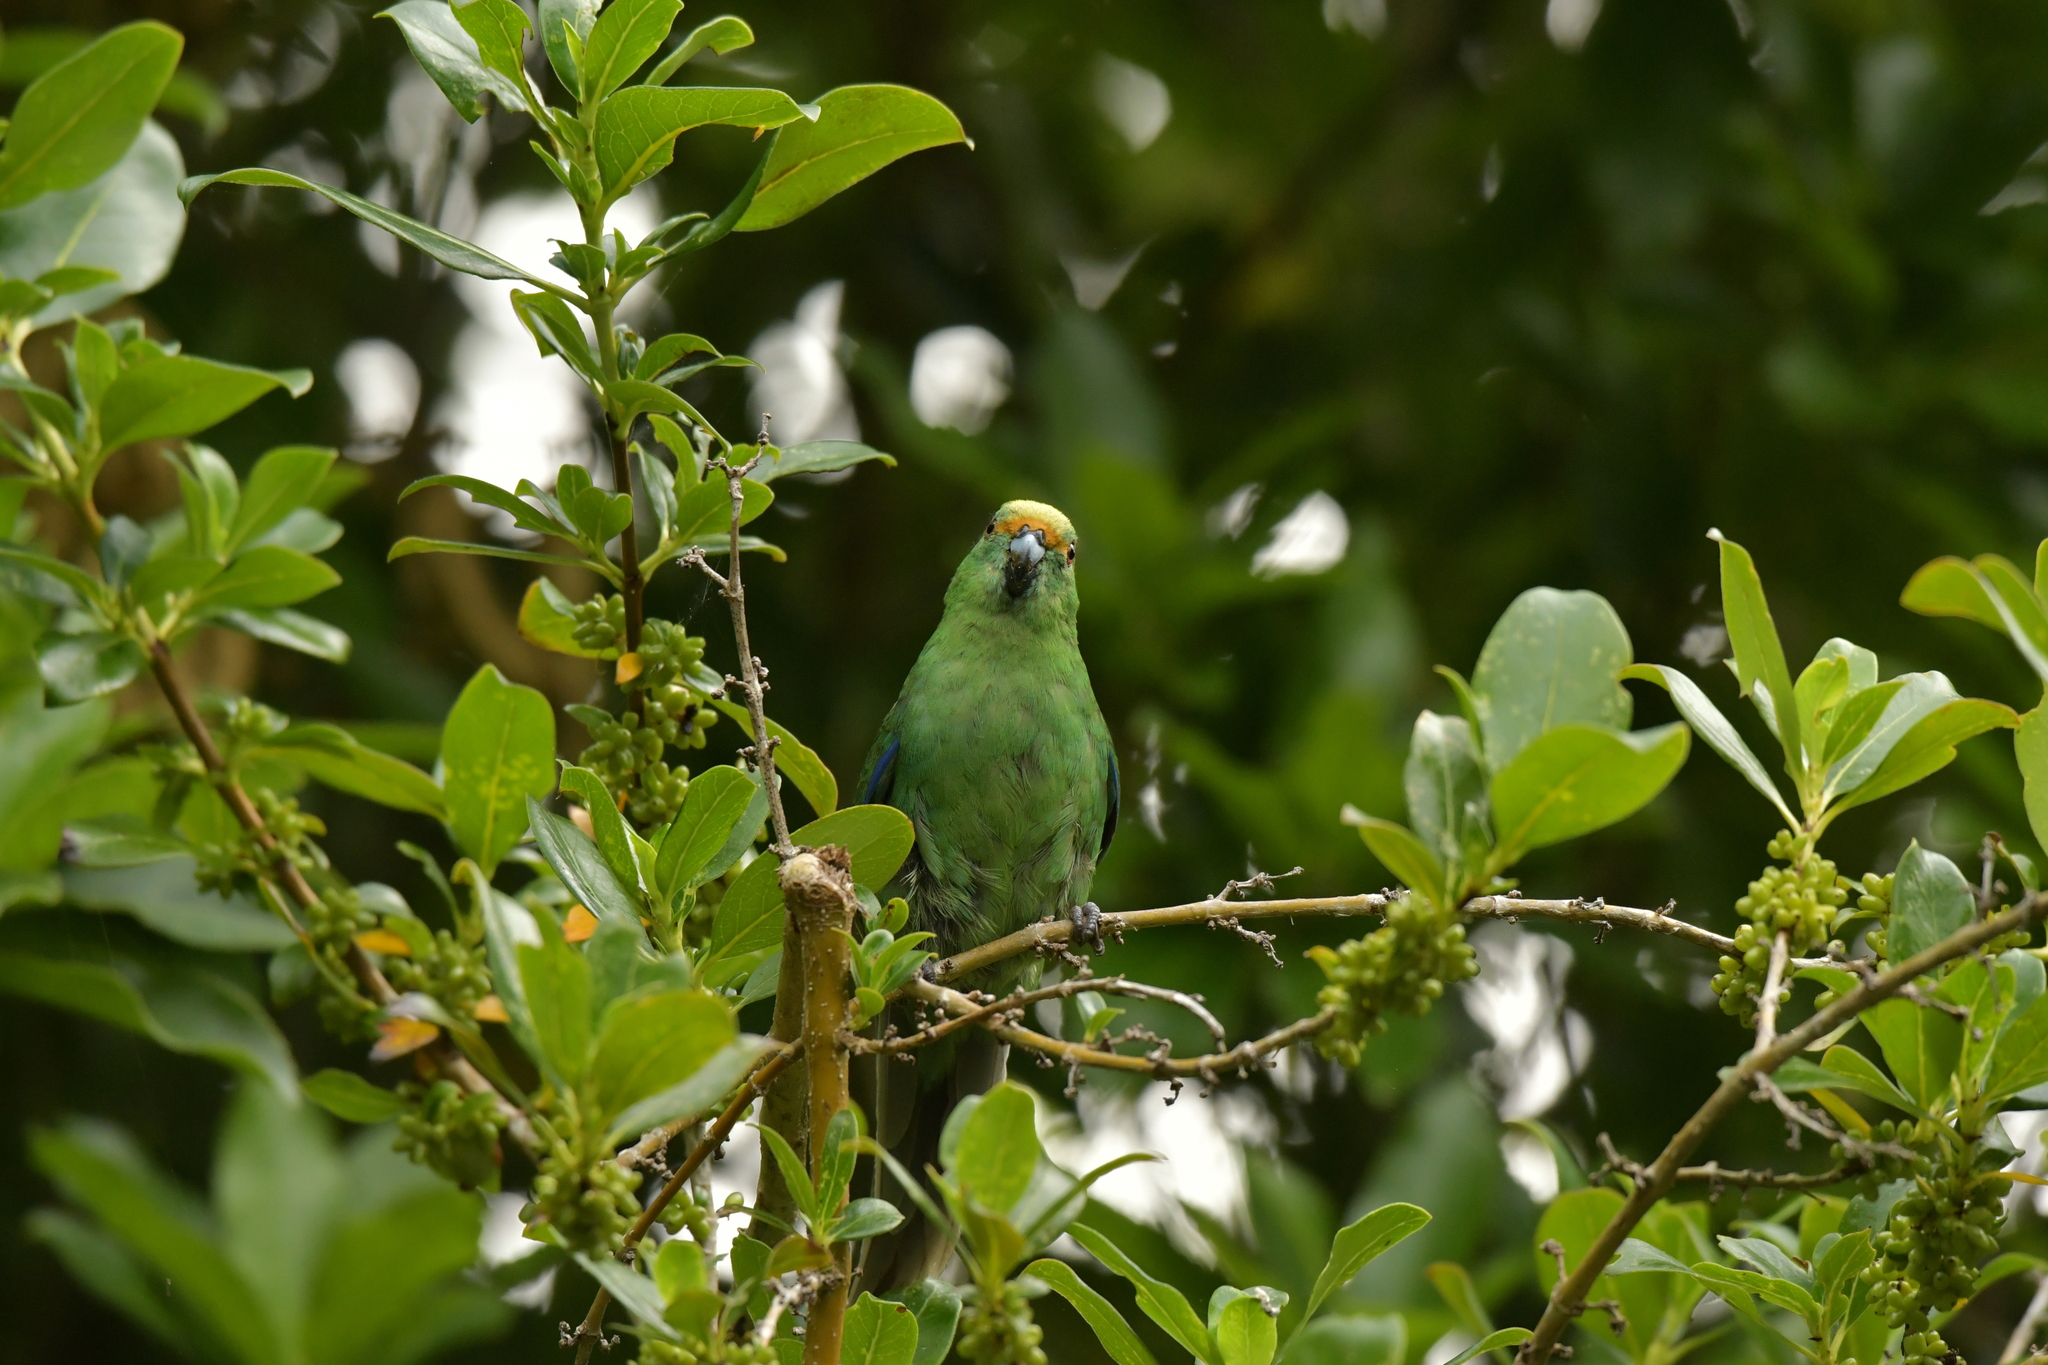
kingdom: Animalia
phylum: Chordata
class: Aves
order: Psittaciformes
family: Psittacidae
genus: Cyanoramphus
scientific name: Cyanoramphus malherbi
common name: Malherbe's parakeet
